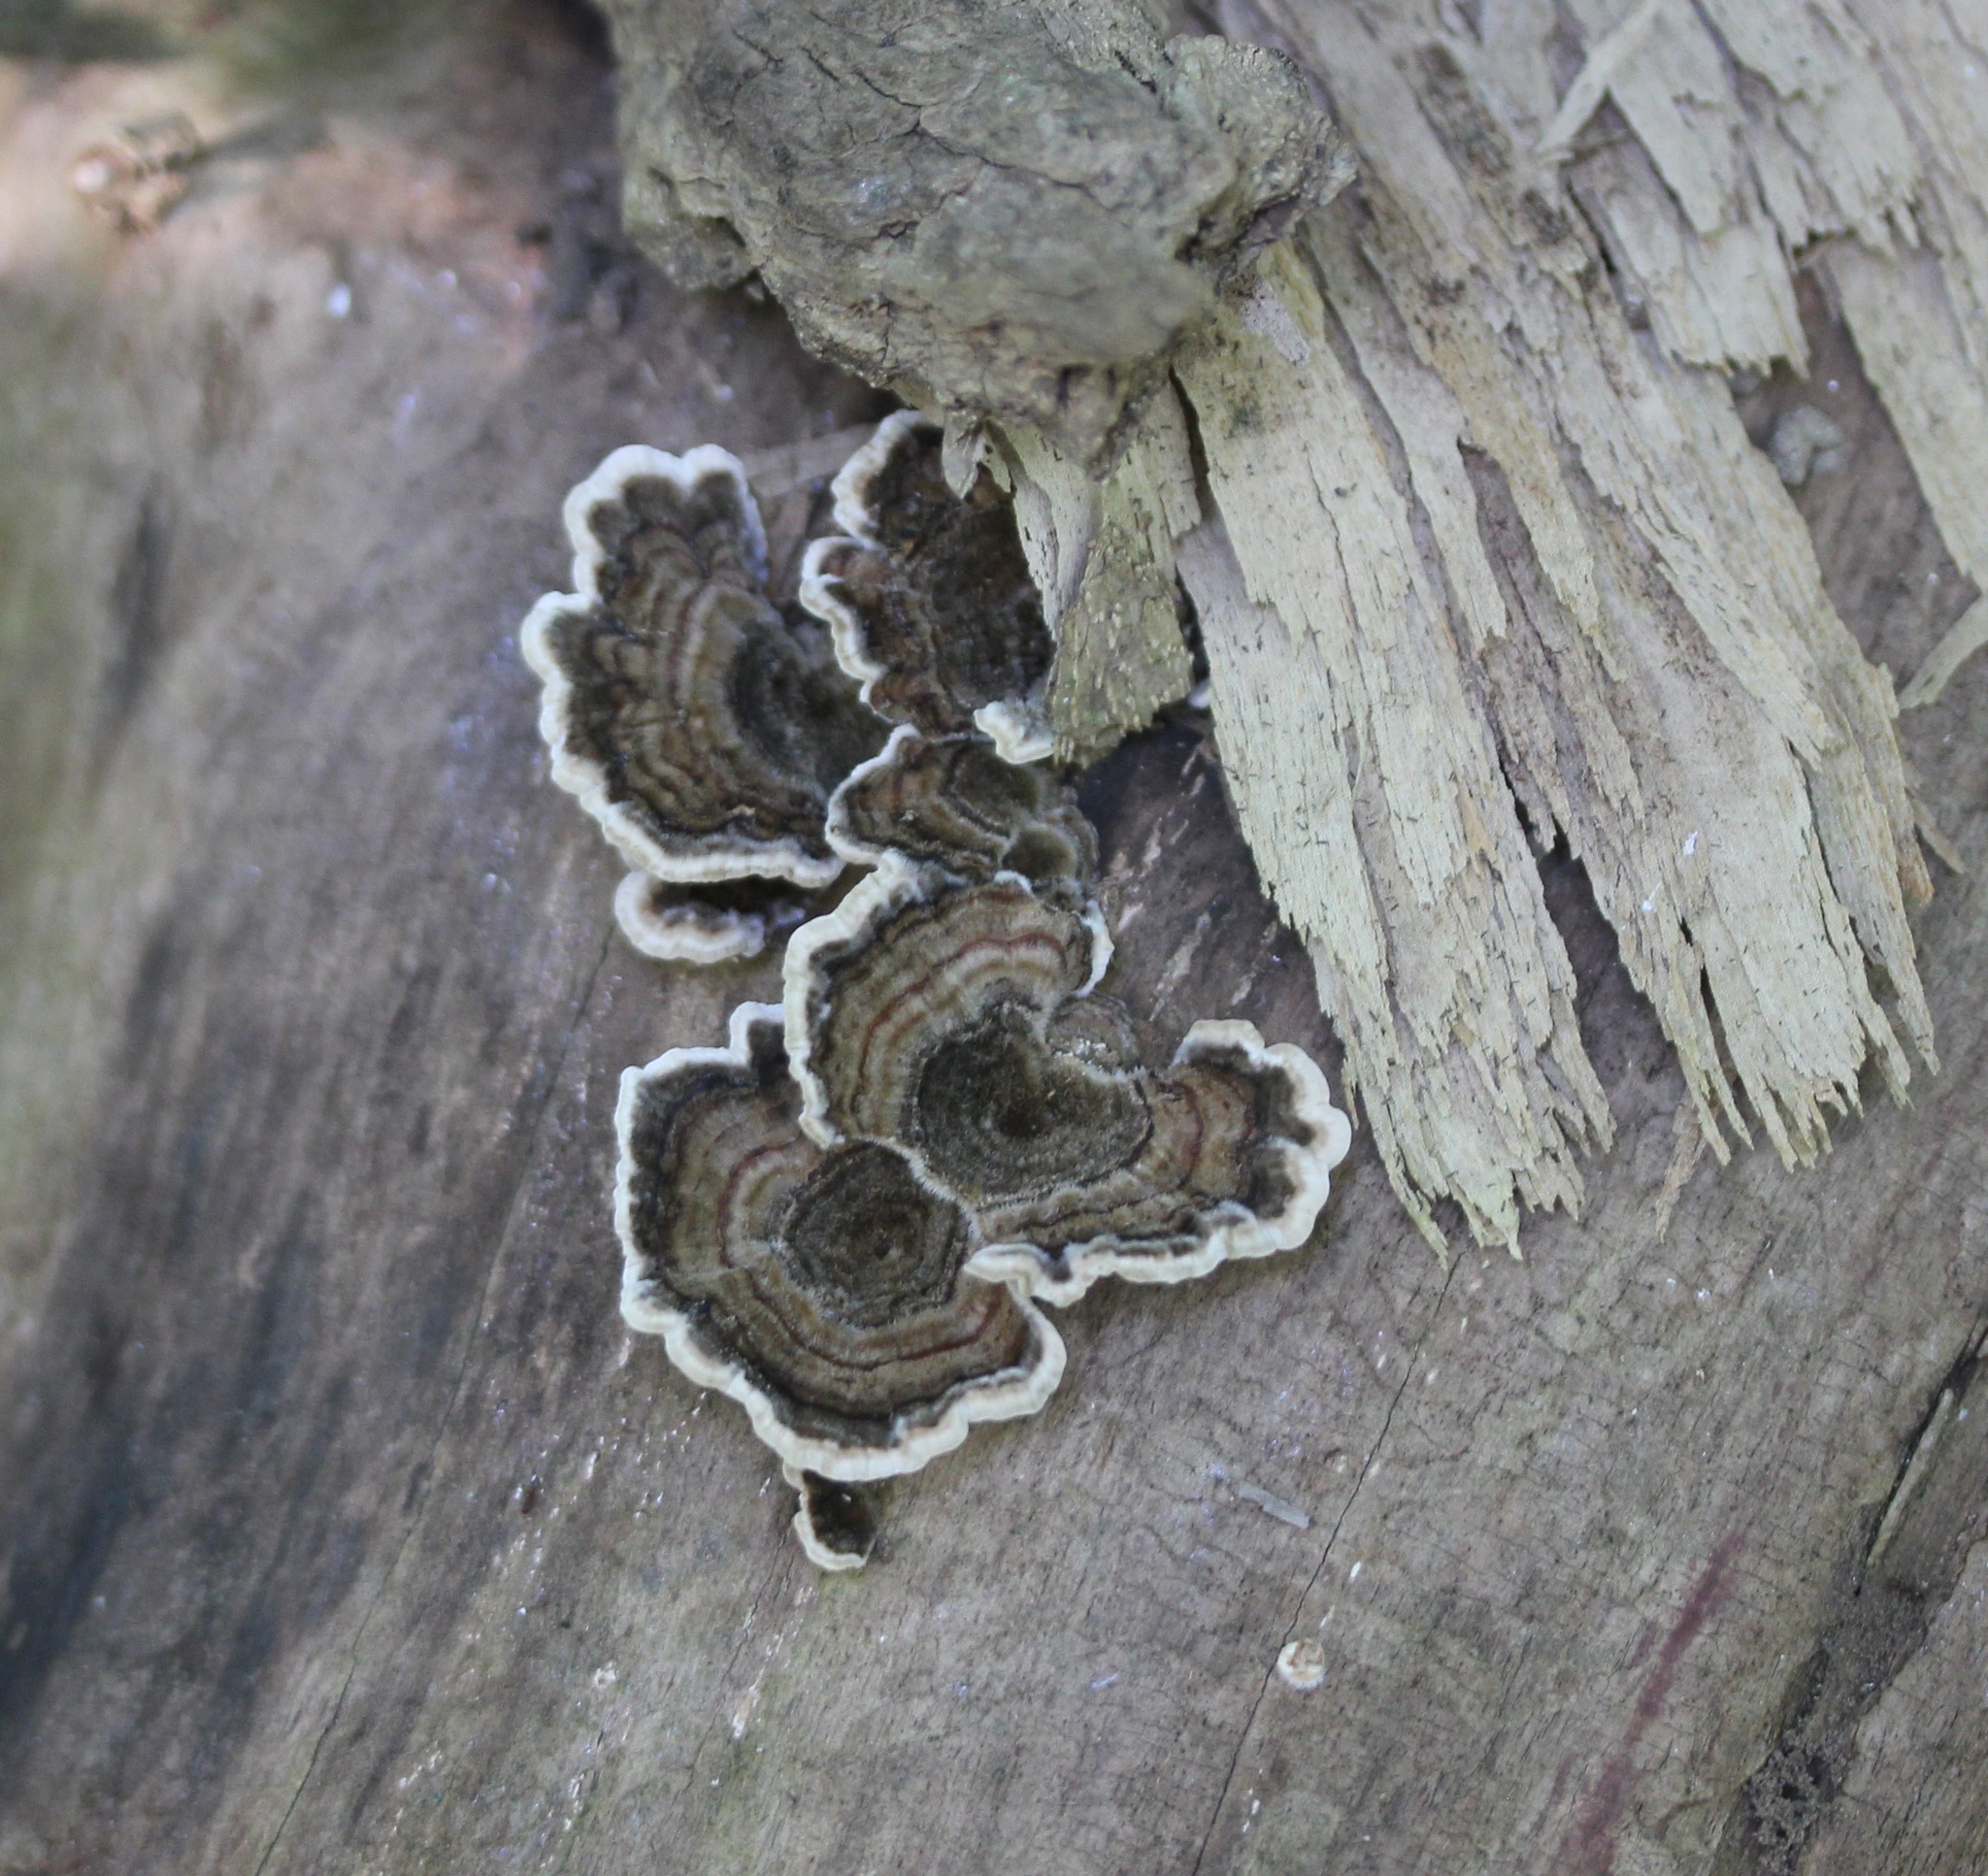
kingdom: Fungi
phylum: Basidiomycota
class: Agaricomycetes
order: Polyporales
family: Polyporaceae
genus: Trametes
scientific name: Trametes versicolor
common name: Turkeytail
